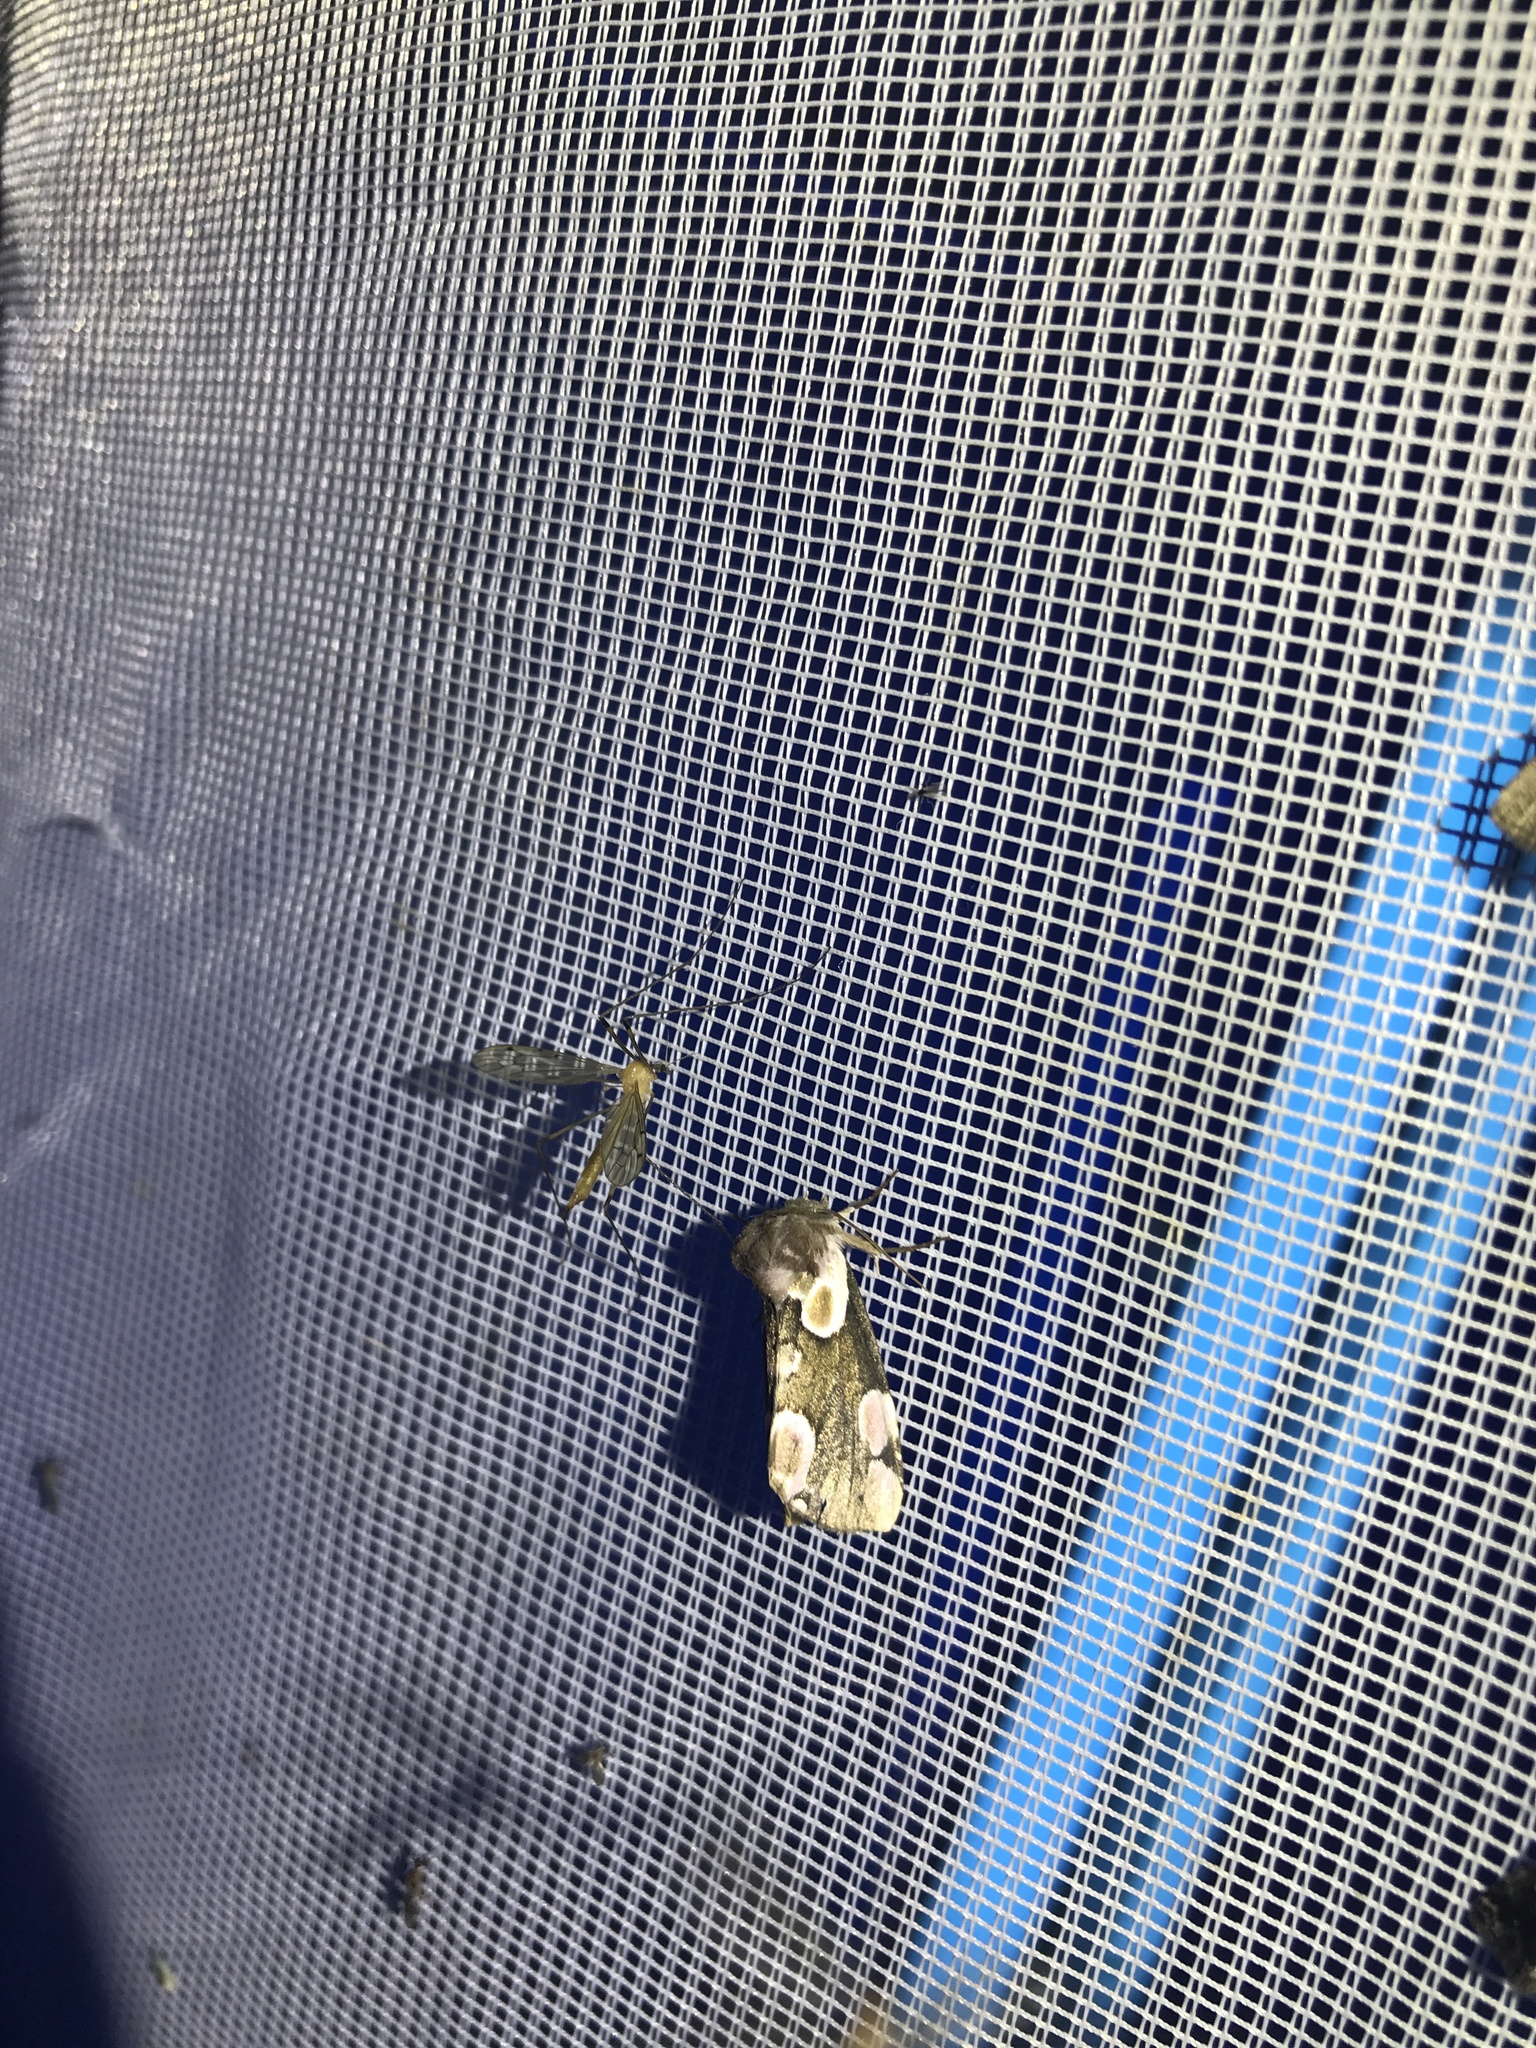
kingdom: Animalia
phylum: Arthropoda
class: Insecta
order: Lepidoptera
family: Drepanidae
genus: Thyatira
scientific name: Thyatira batis
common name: Peach blossom
